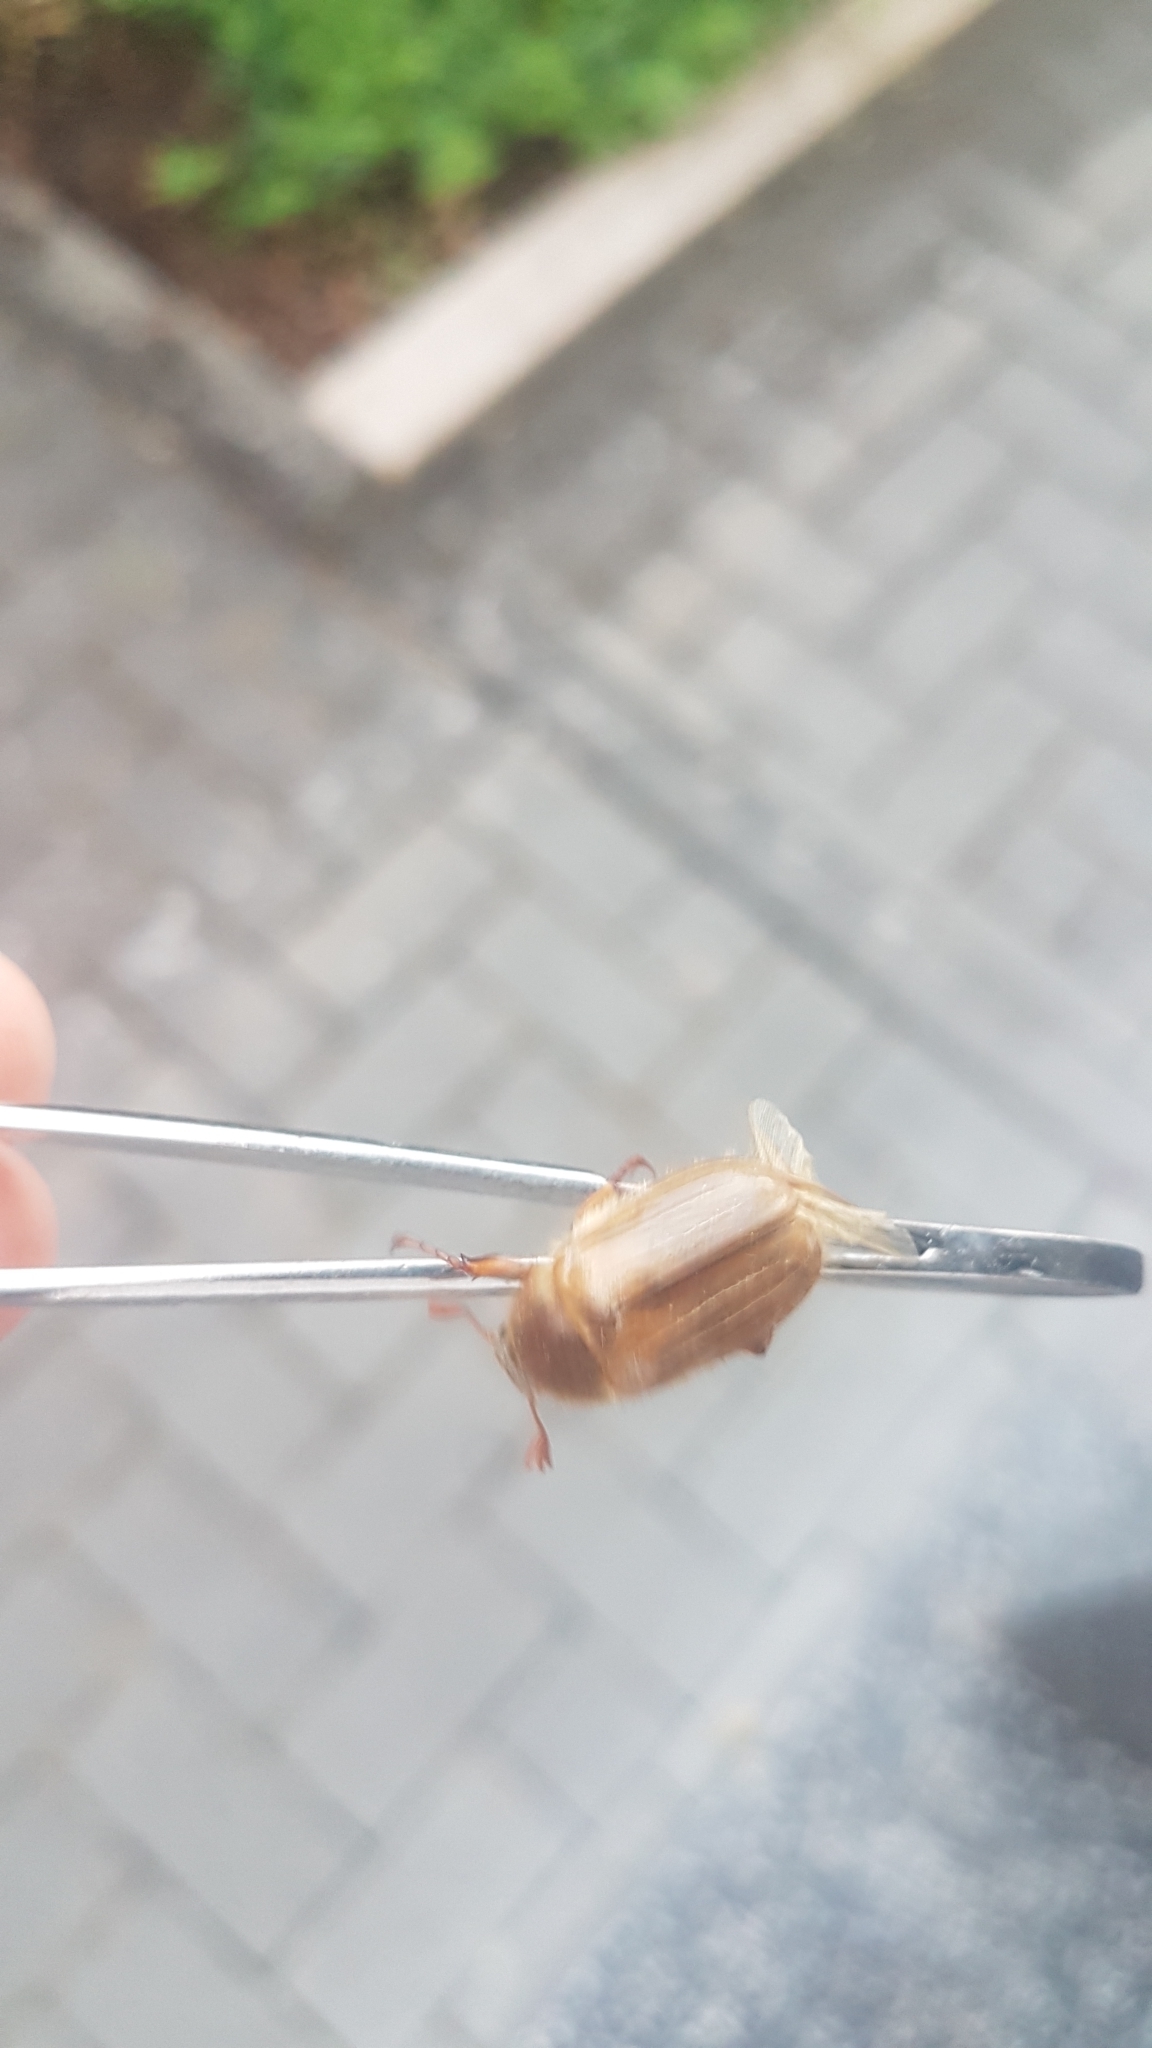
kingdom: Animalia
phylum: Arthropoda
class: Insecta
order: Coleoptera
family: Scarabaeidae
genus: Amphimallon
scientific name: Amphimallon solstitiale
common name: Summer chafer
